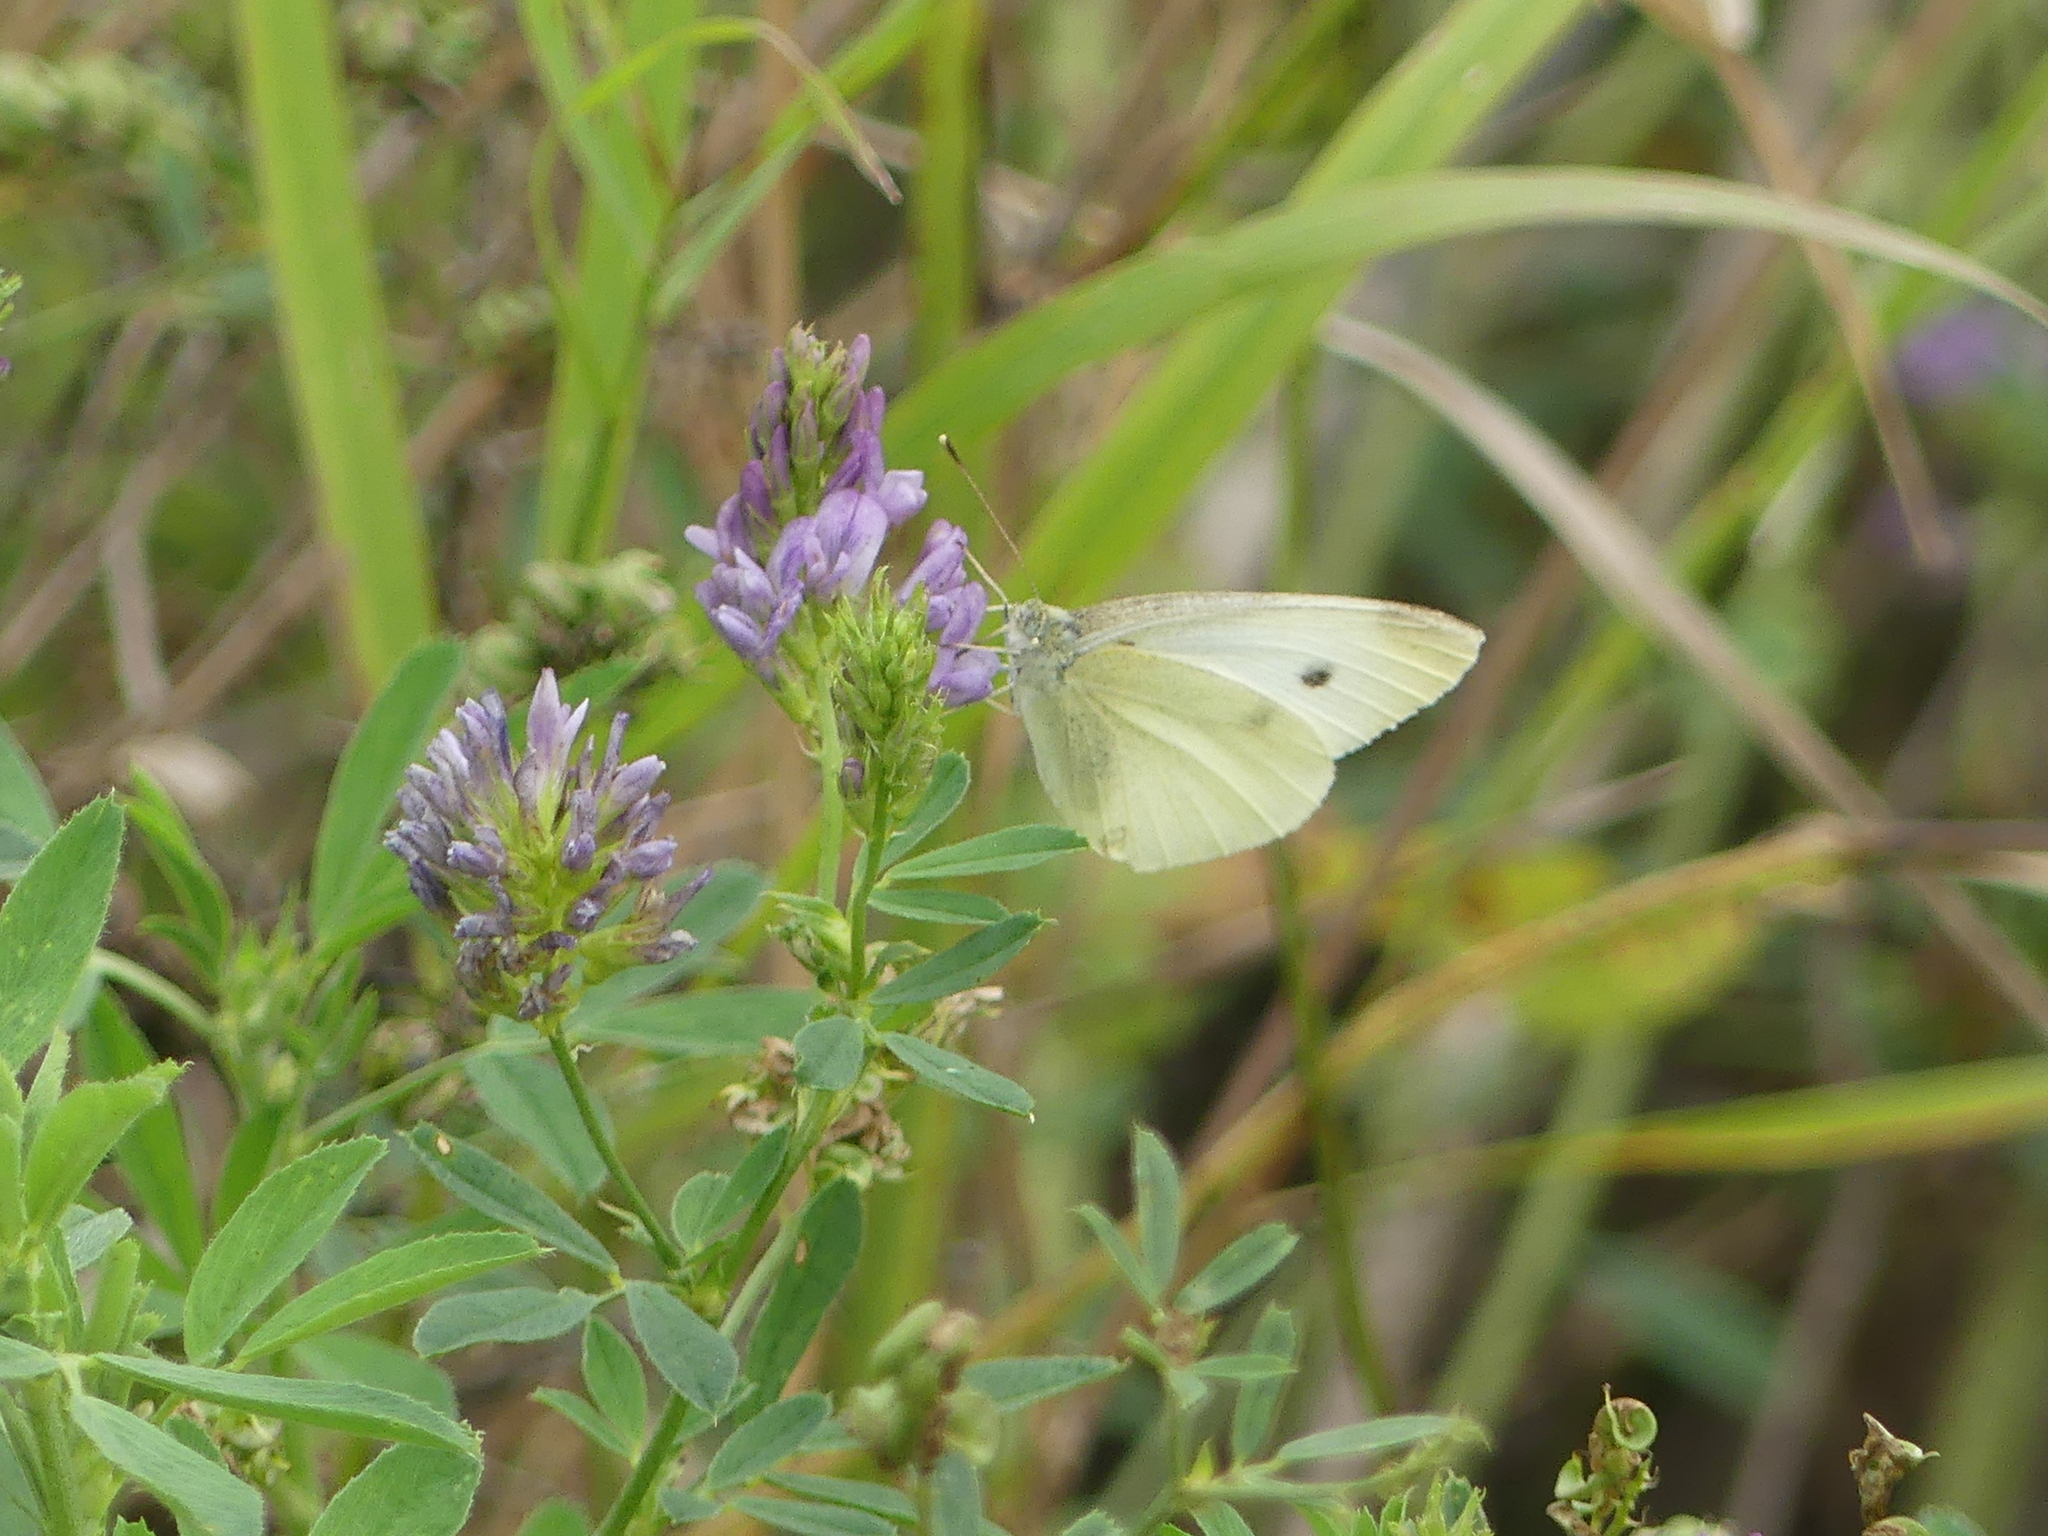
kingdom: Animalia
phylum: Arthropoda
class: Insecta
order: Lepidoptera
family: Pieridae
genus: Pieris
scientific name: Pieris rapae
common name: Small white
